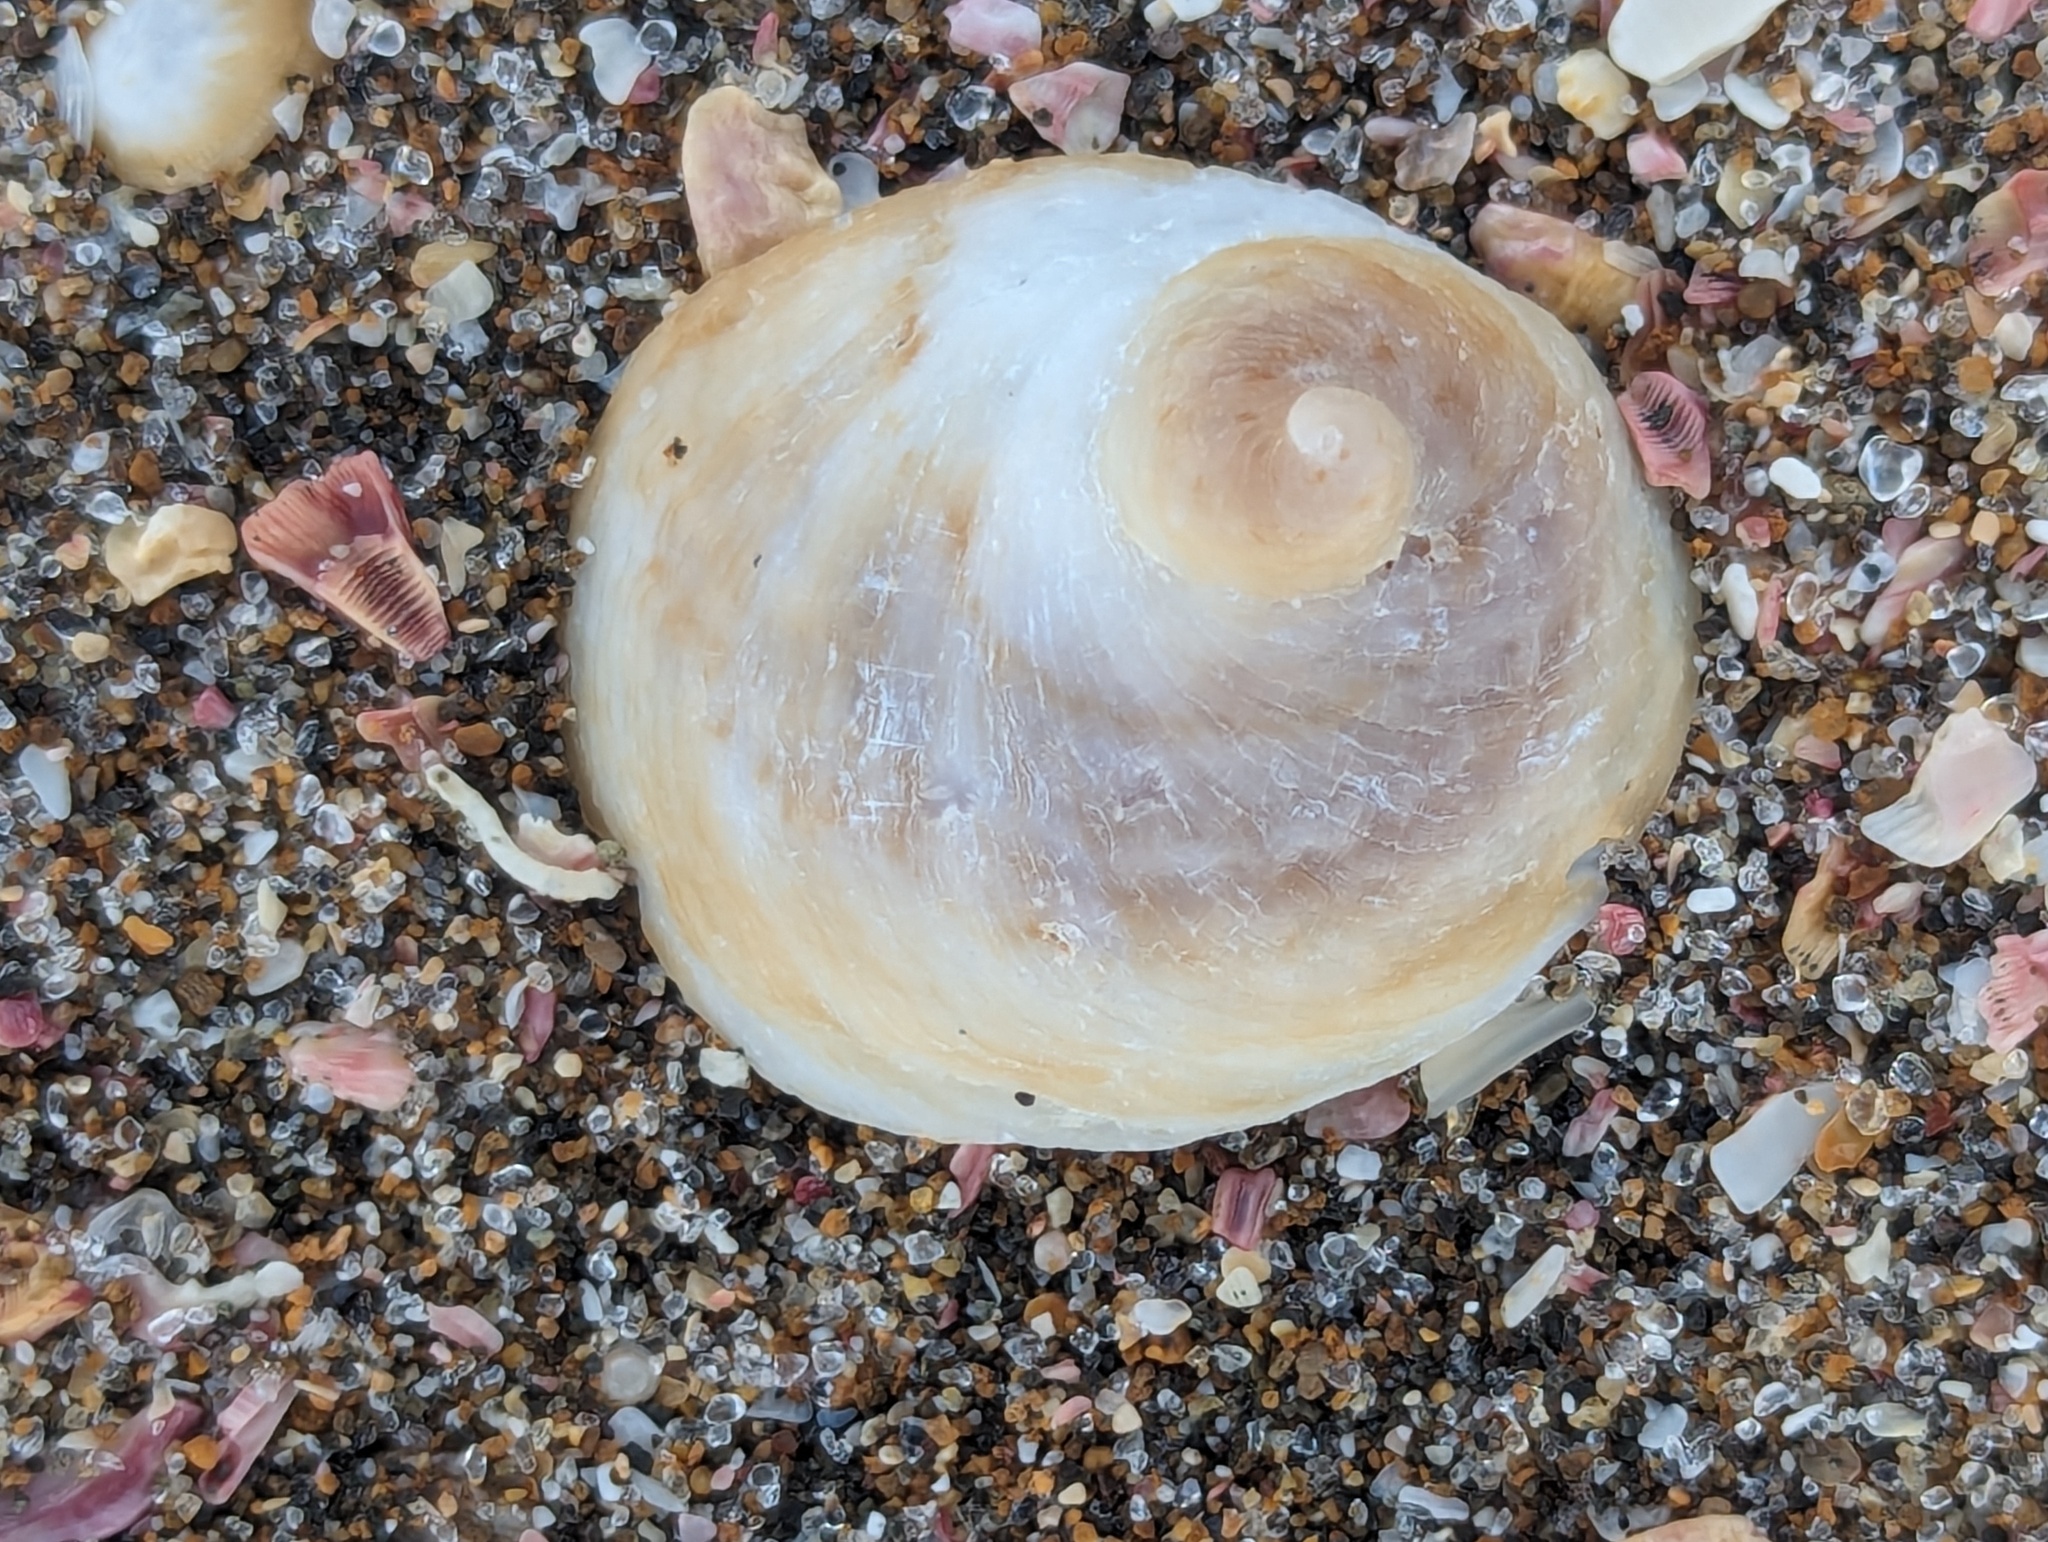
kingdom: Animalia
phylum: Mollusca
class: Gastropoda
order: Littorinimorpha
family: Calyptraeidae
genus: Sigapatella
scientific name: Sigapatella novaezelandiae
